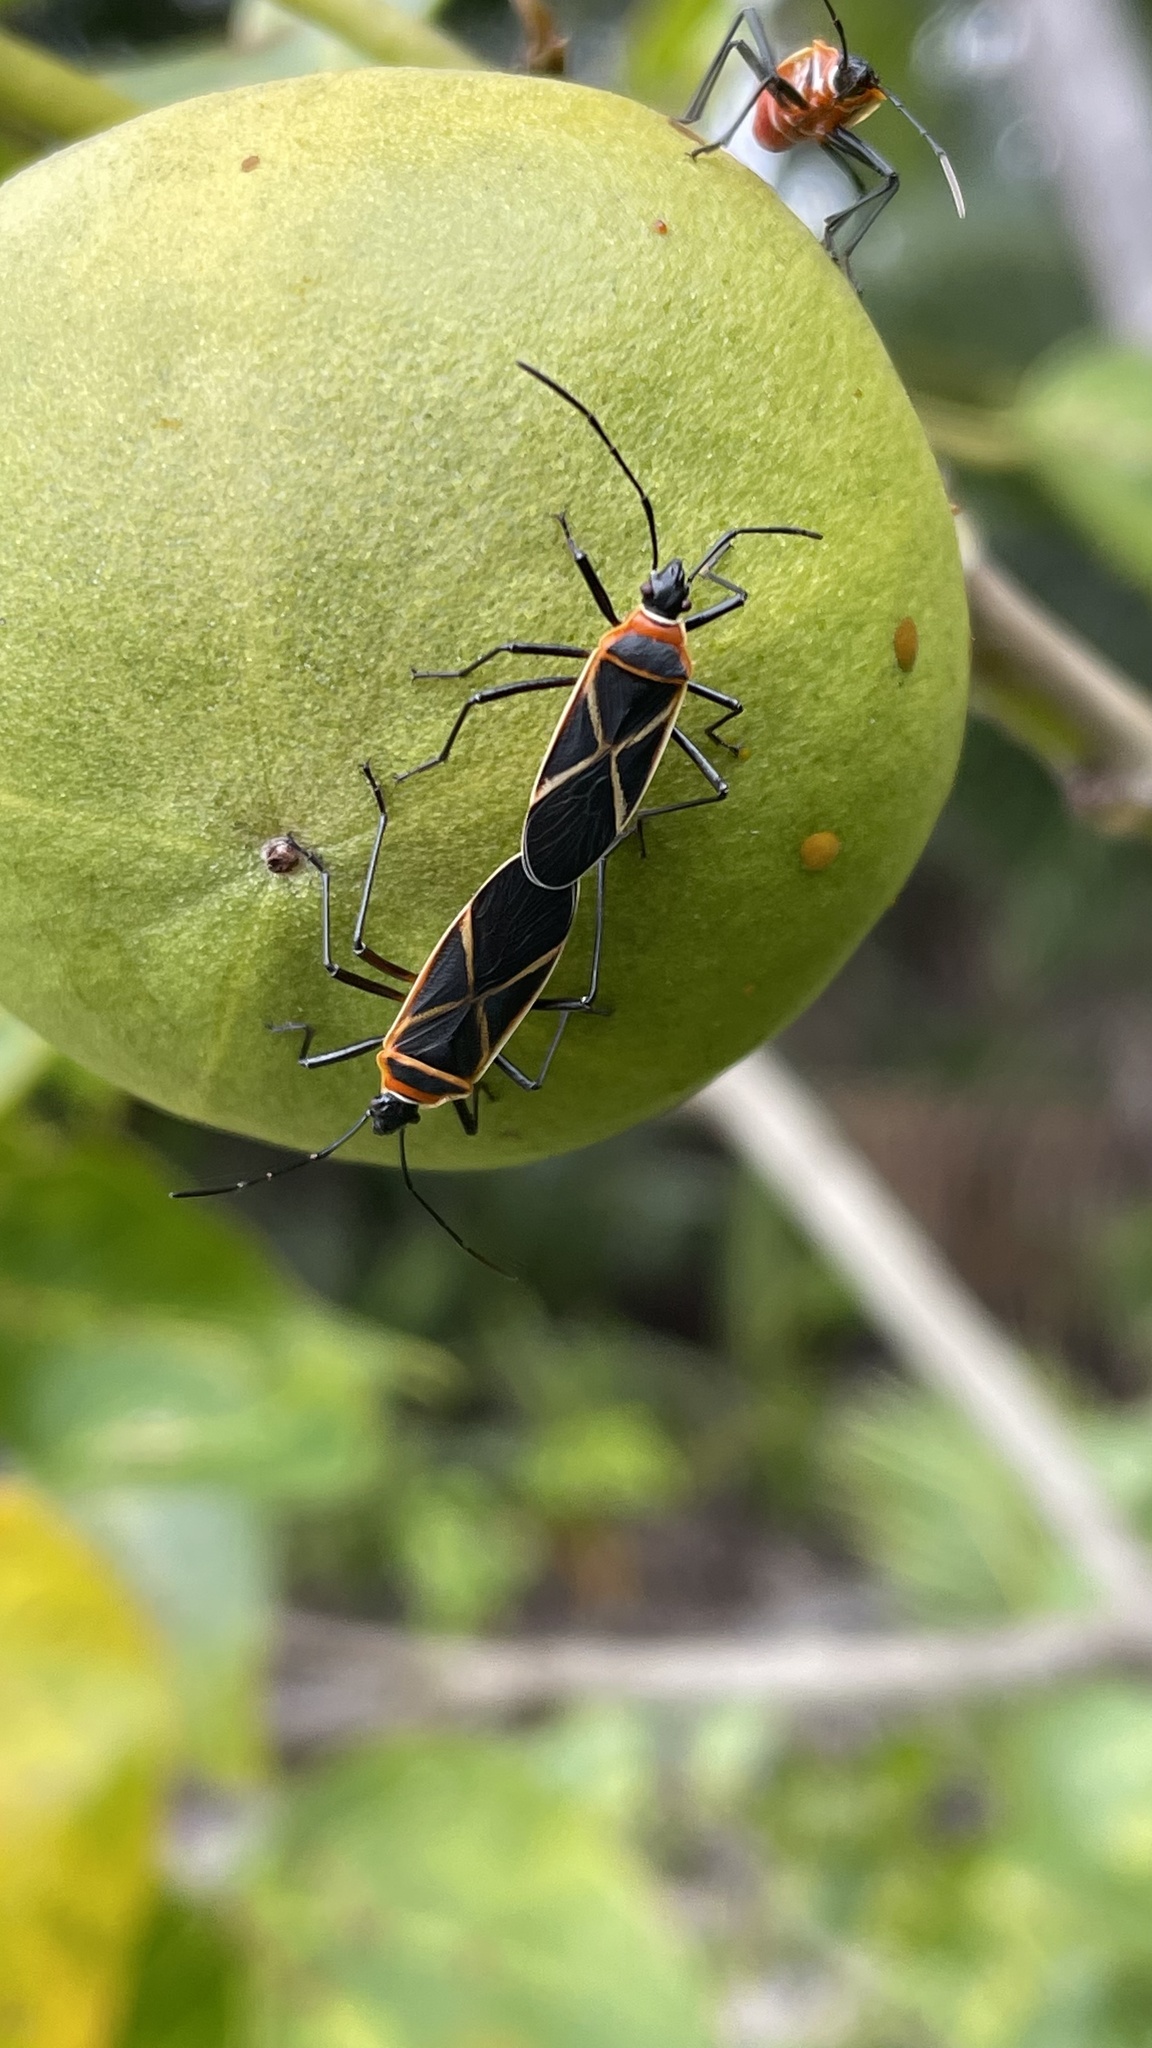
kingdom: Animalia
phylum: Arthropoda
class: Insecta
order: Hemiptera
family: Pyrrhocoridae
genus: Dysdercus
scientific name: Dysdercus decussatus
